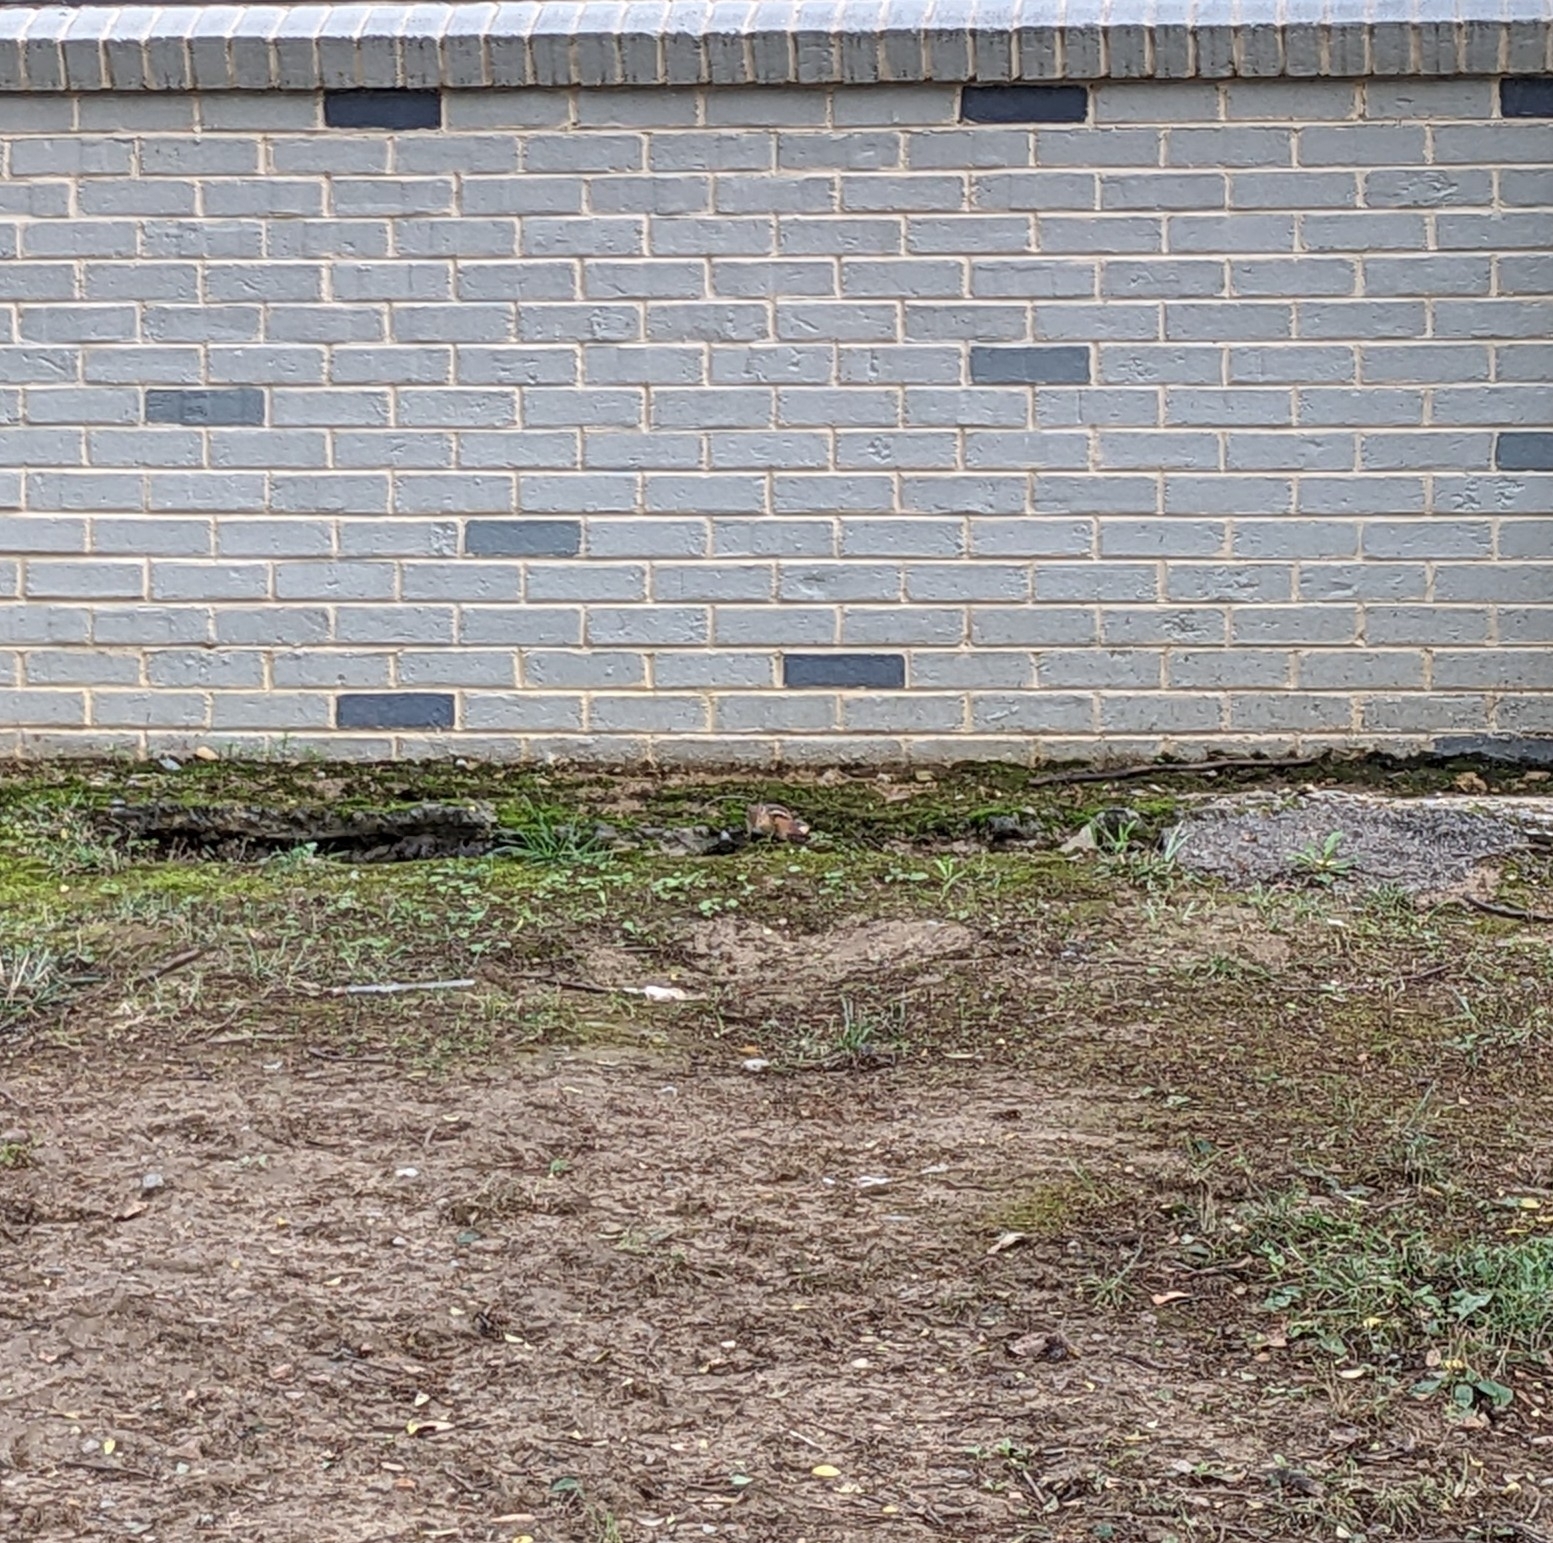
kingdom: Animalia
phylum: Chordata
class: Mammalia
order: Rodentia
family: Sciuridae
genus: Tamias
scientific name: Tamias striatus
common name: Eastern chipmunk
